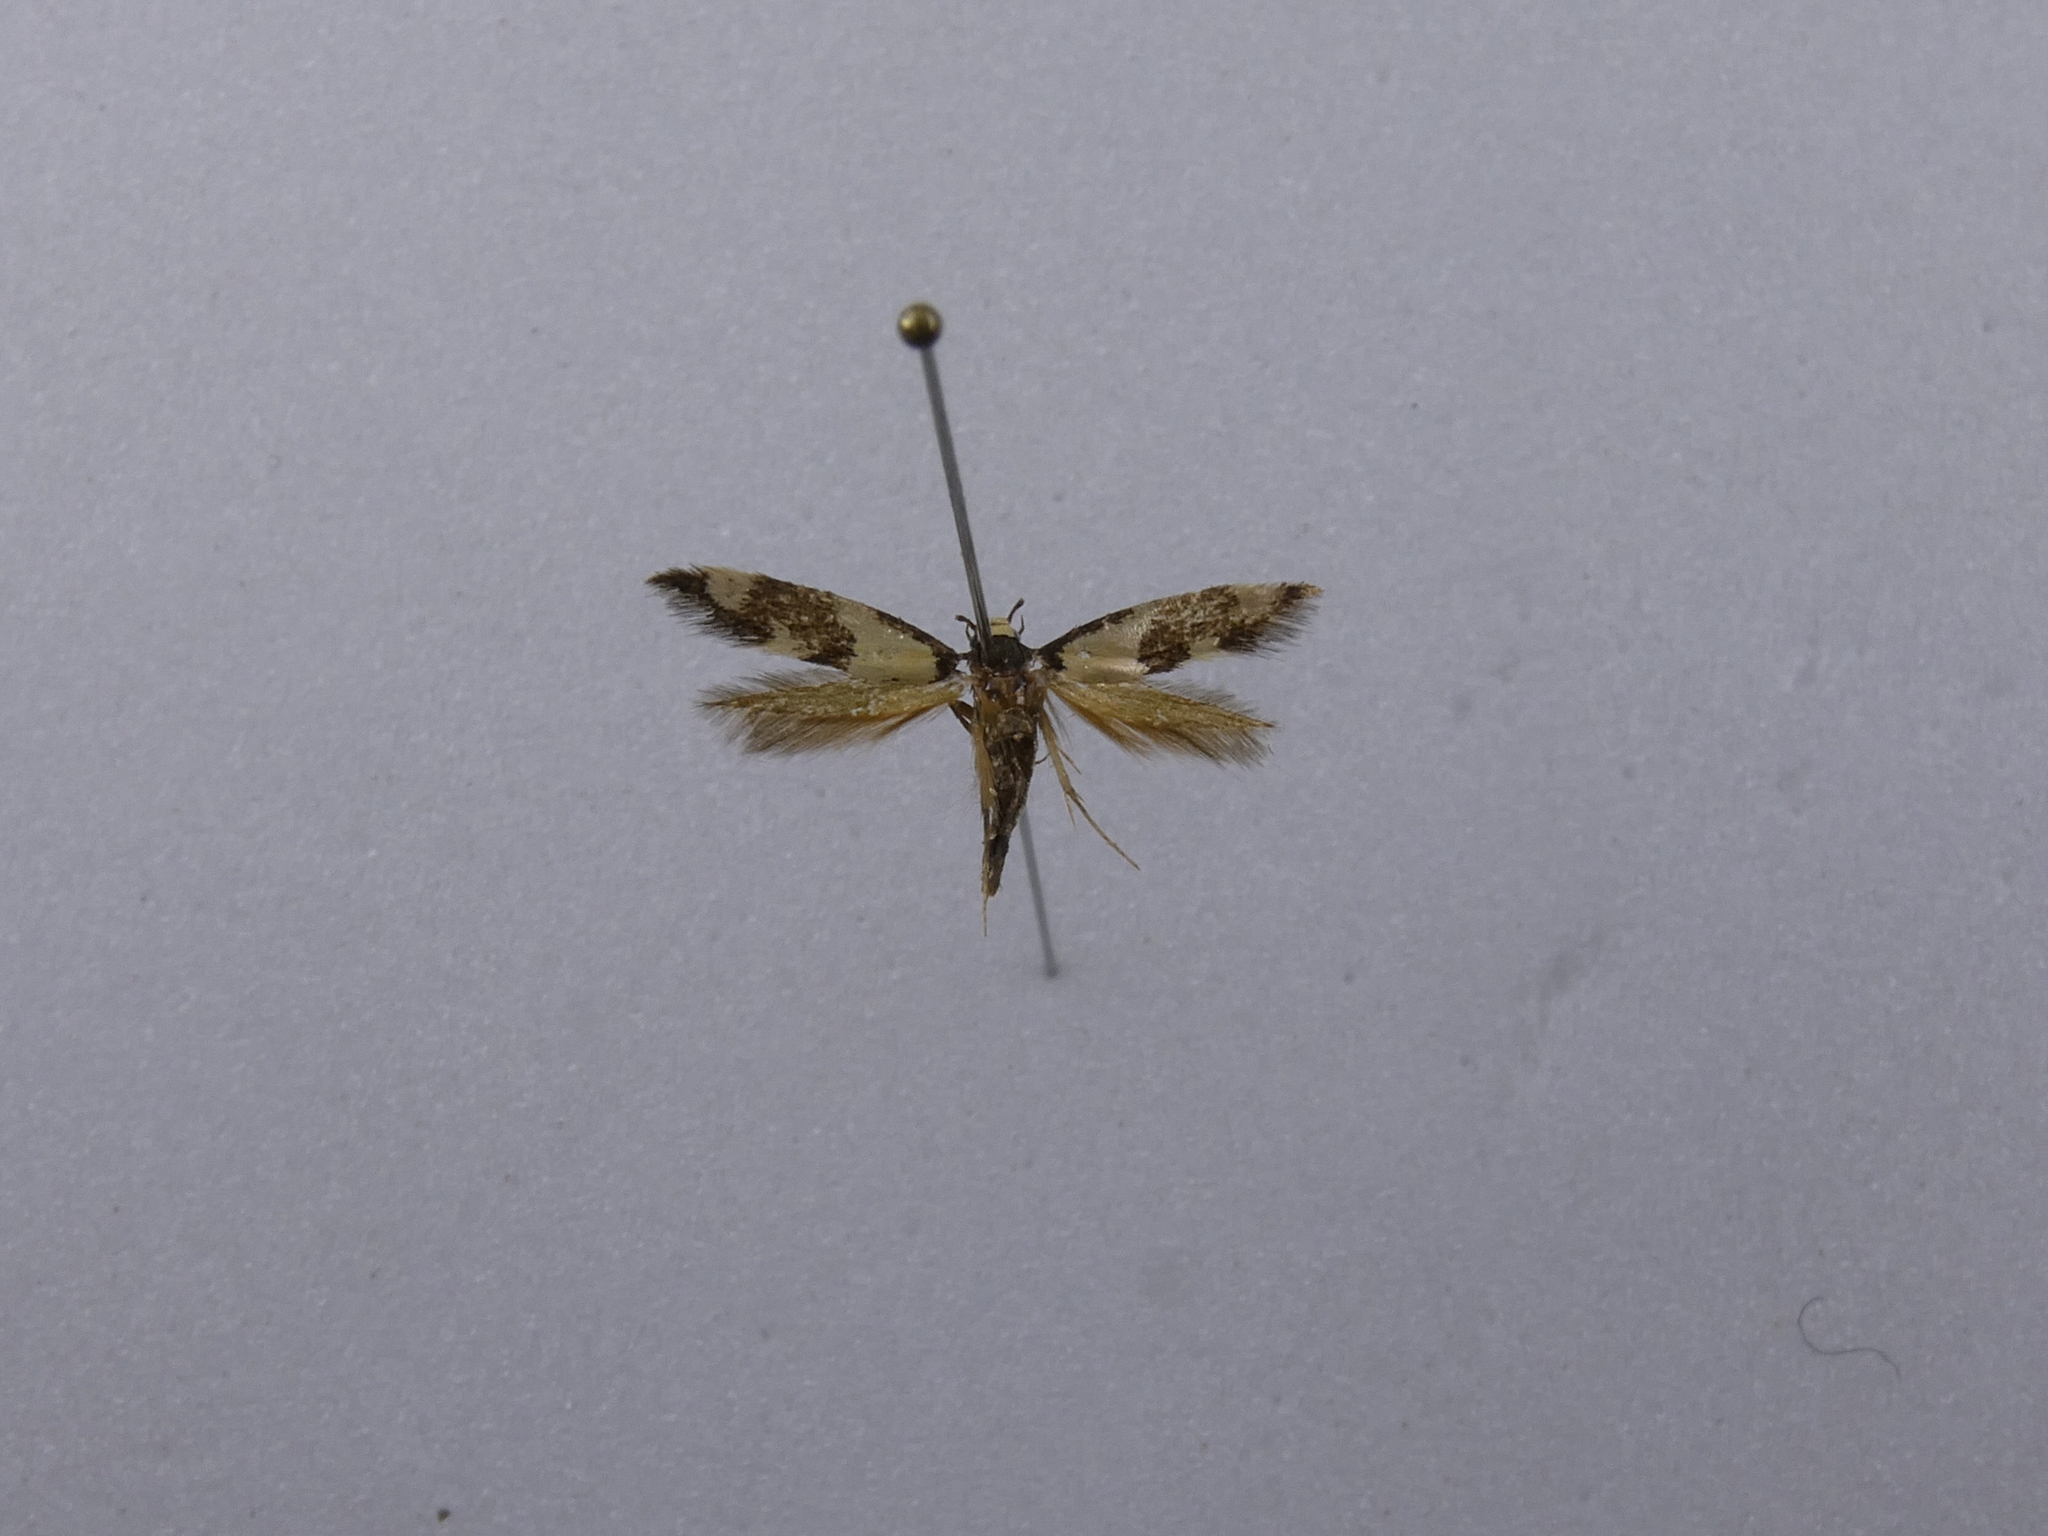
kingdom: Animalia
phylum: Arthropoda
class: Insecta
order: Lepidoptera
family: Tineidae
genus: Opogona
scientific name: Opogona comptella
